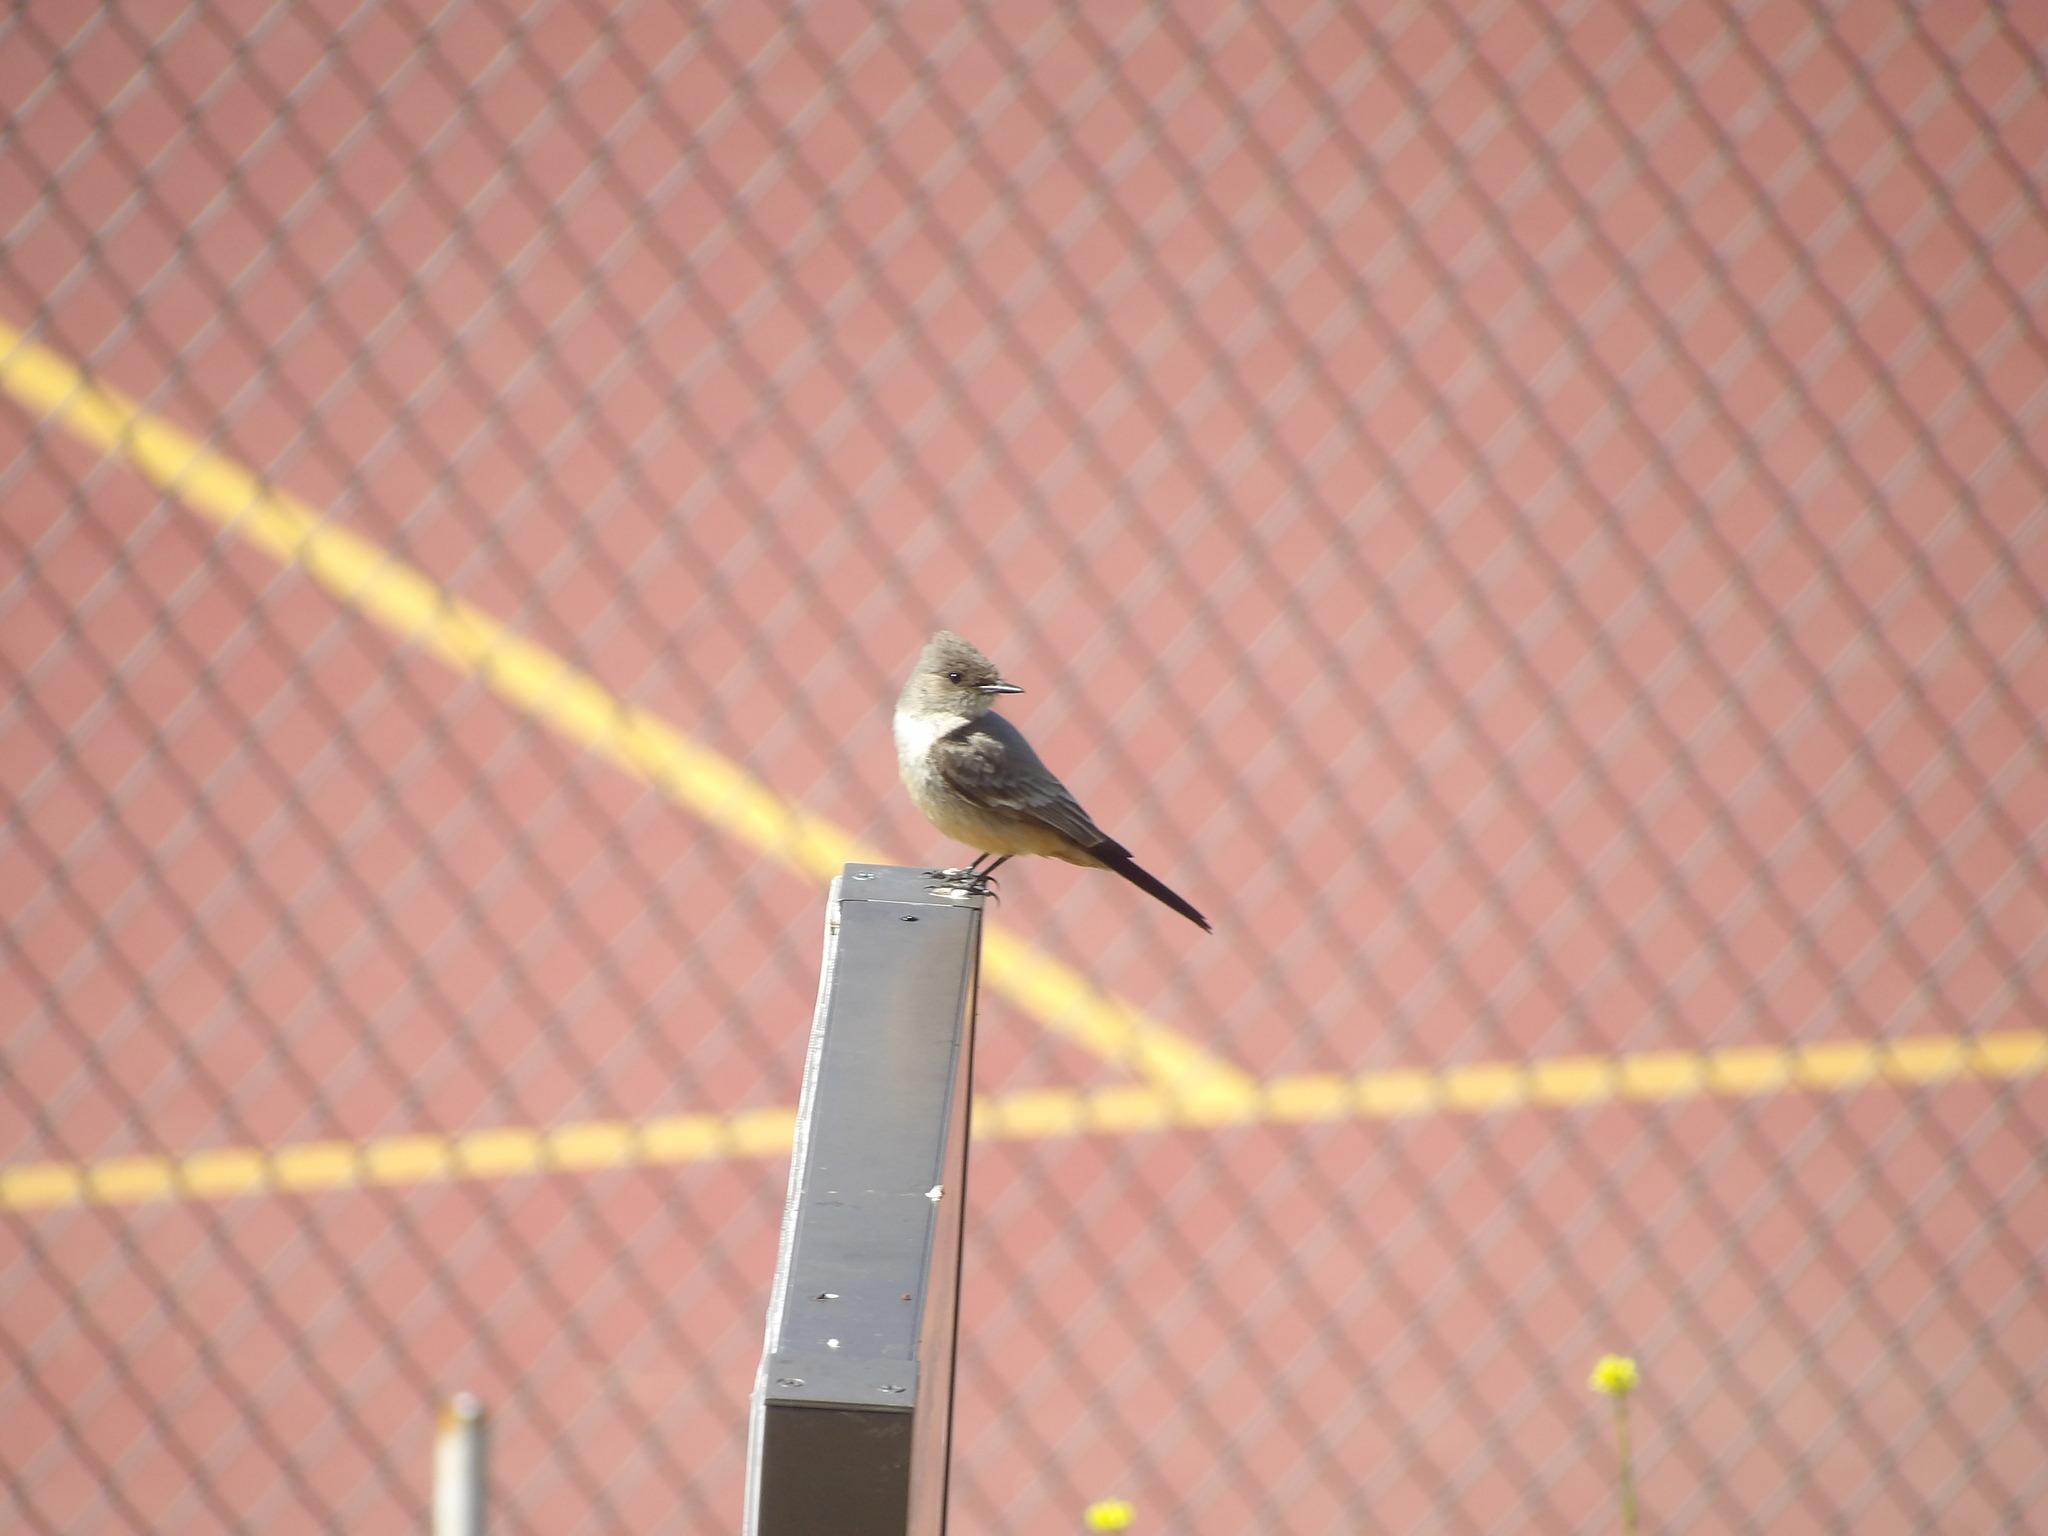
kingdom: Animalia
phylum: Chordata
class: Aves
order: Passeriformes
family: Tyrannidae
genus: Sayornis
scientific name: Sayornis saya
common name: Say's phoebe
